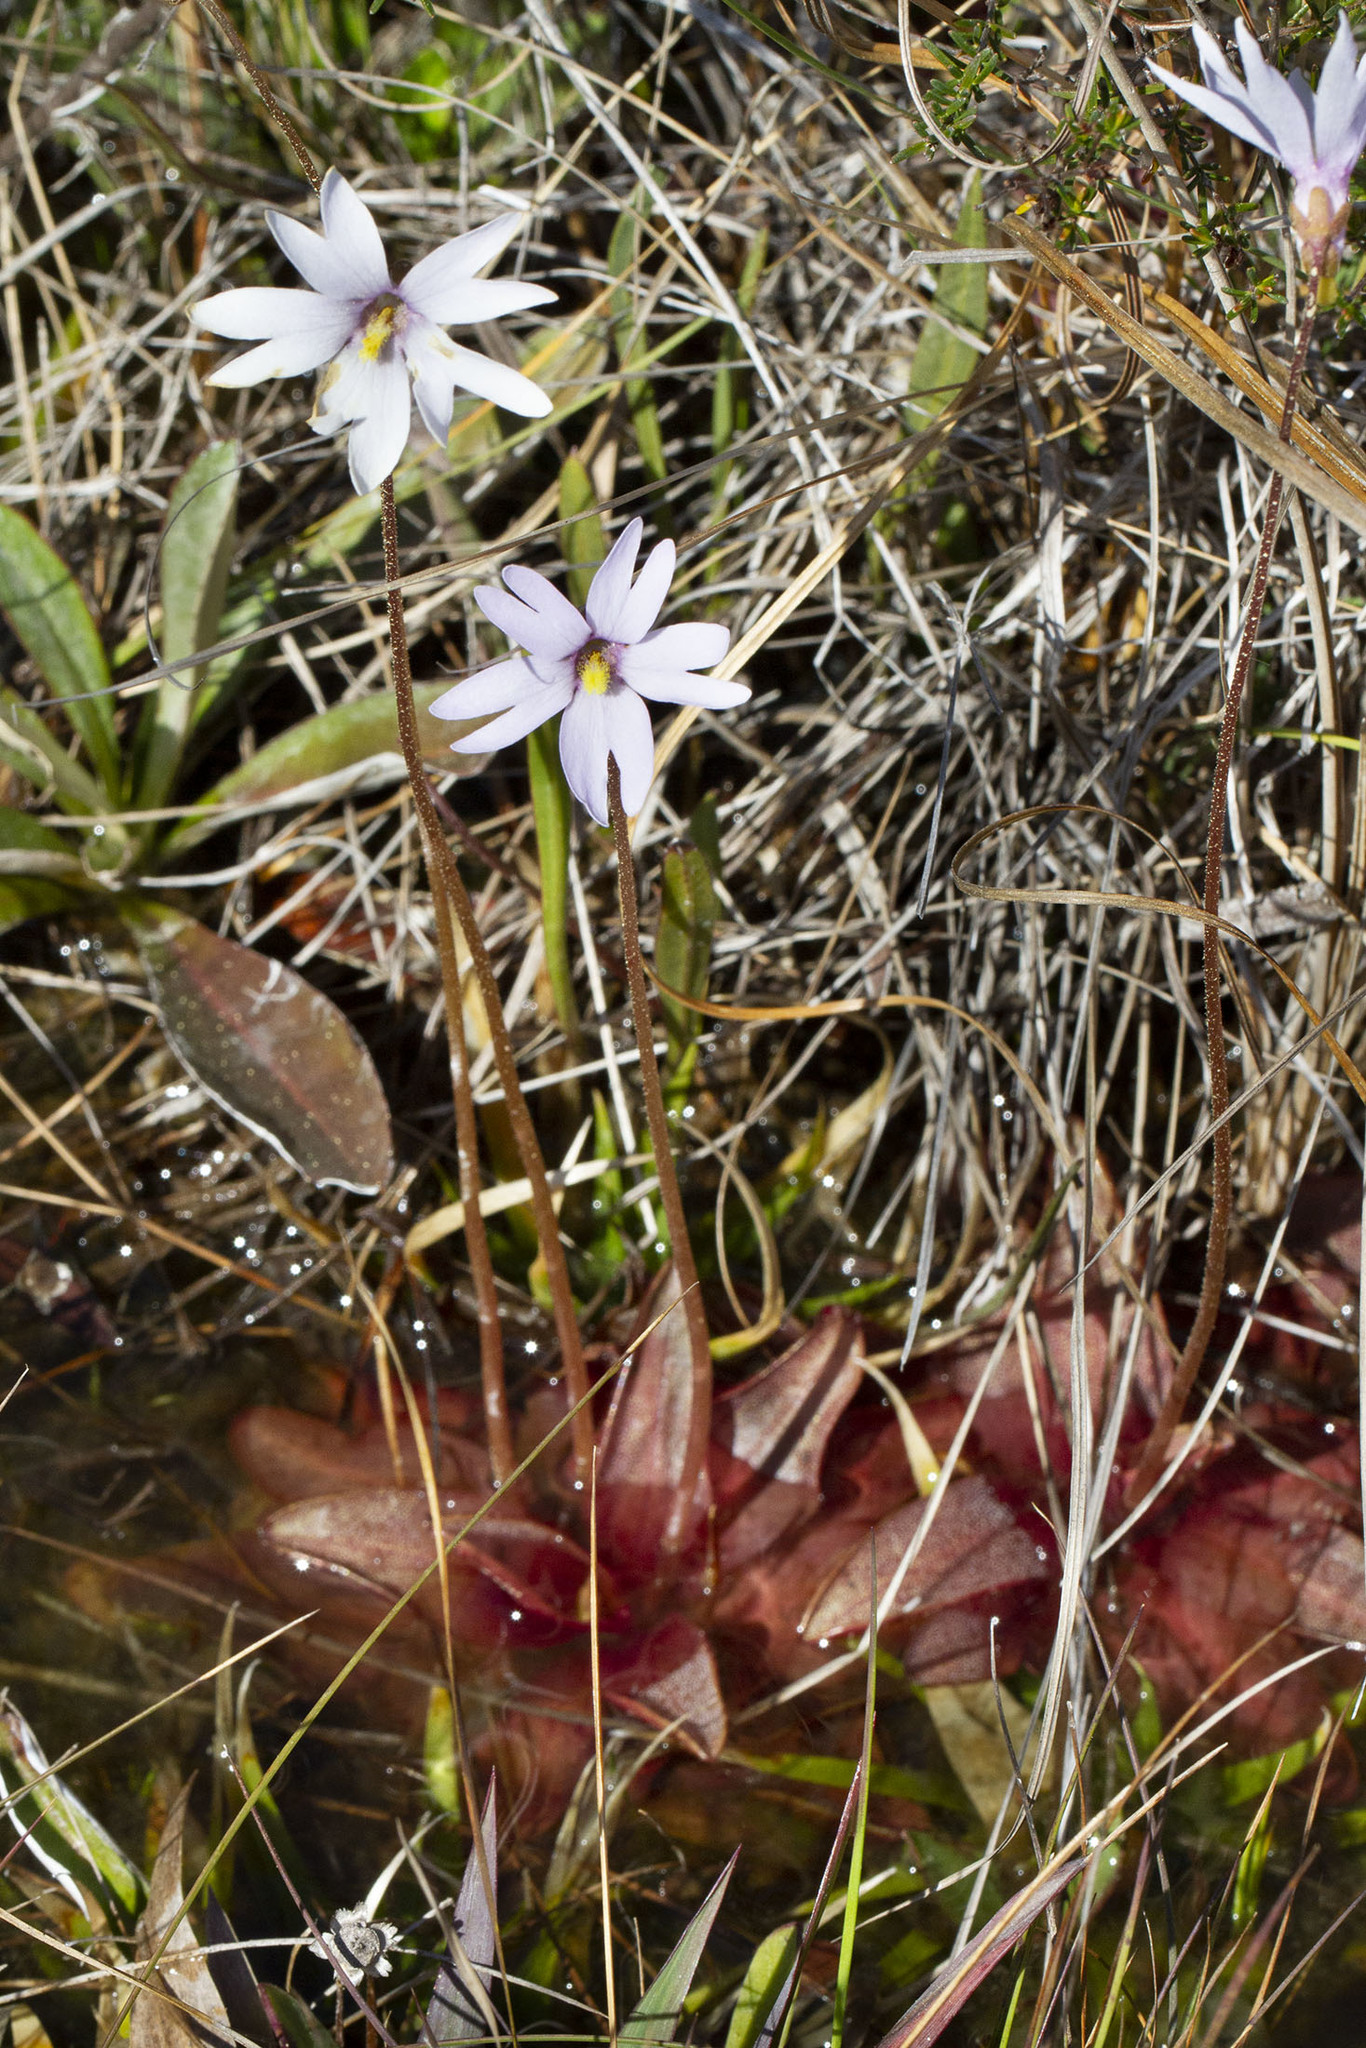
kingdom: Plantae
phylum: Tracheophyta
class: Magnoliopsida
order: Lamiales
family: Lentibulariaceae
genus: Pinguicula
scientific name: Pinguicula planifolia
